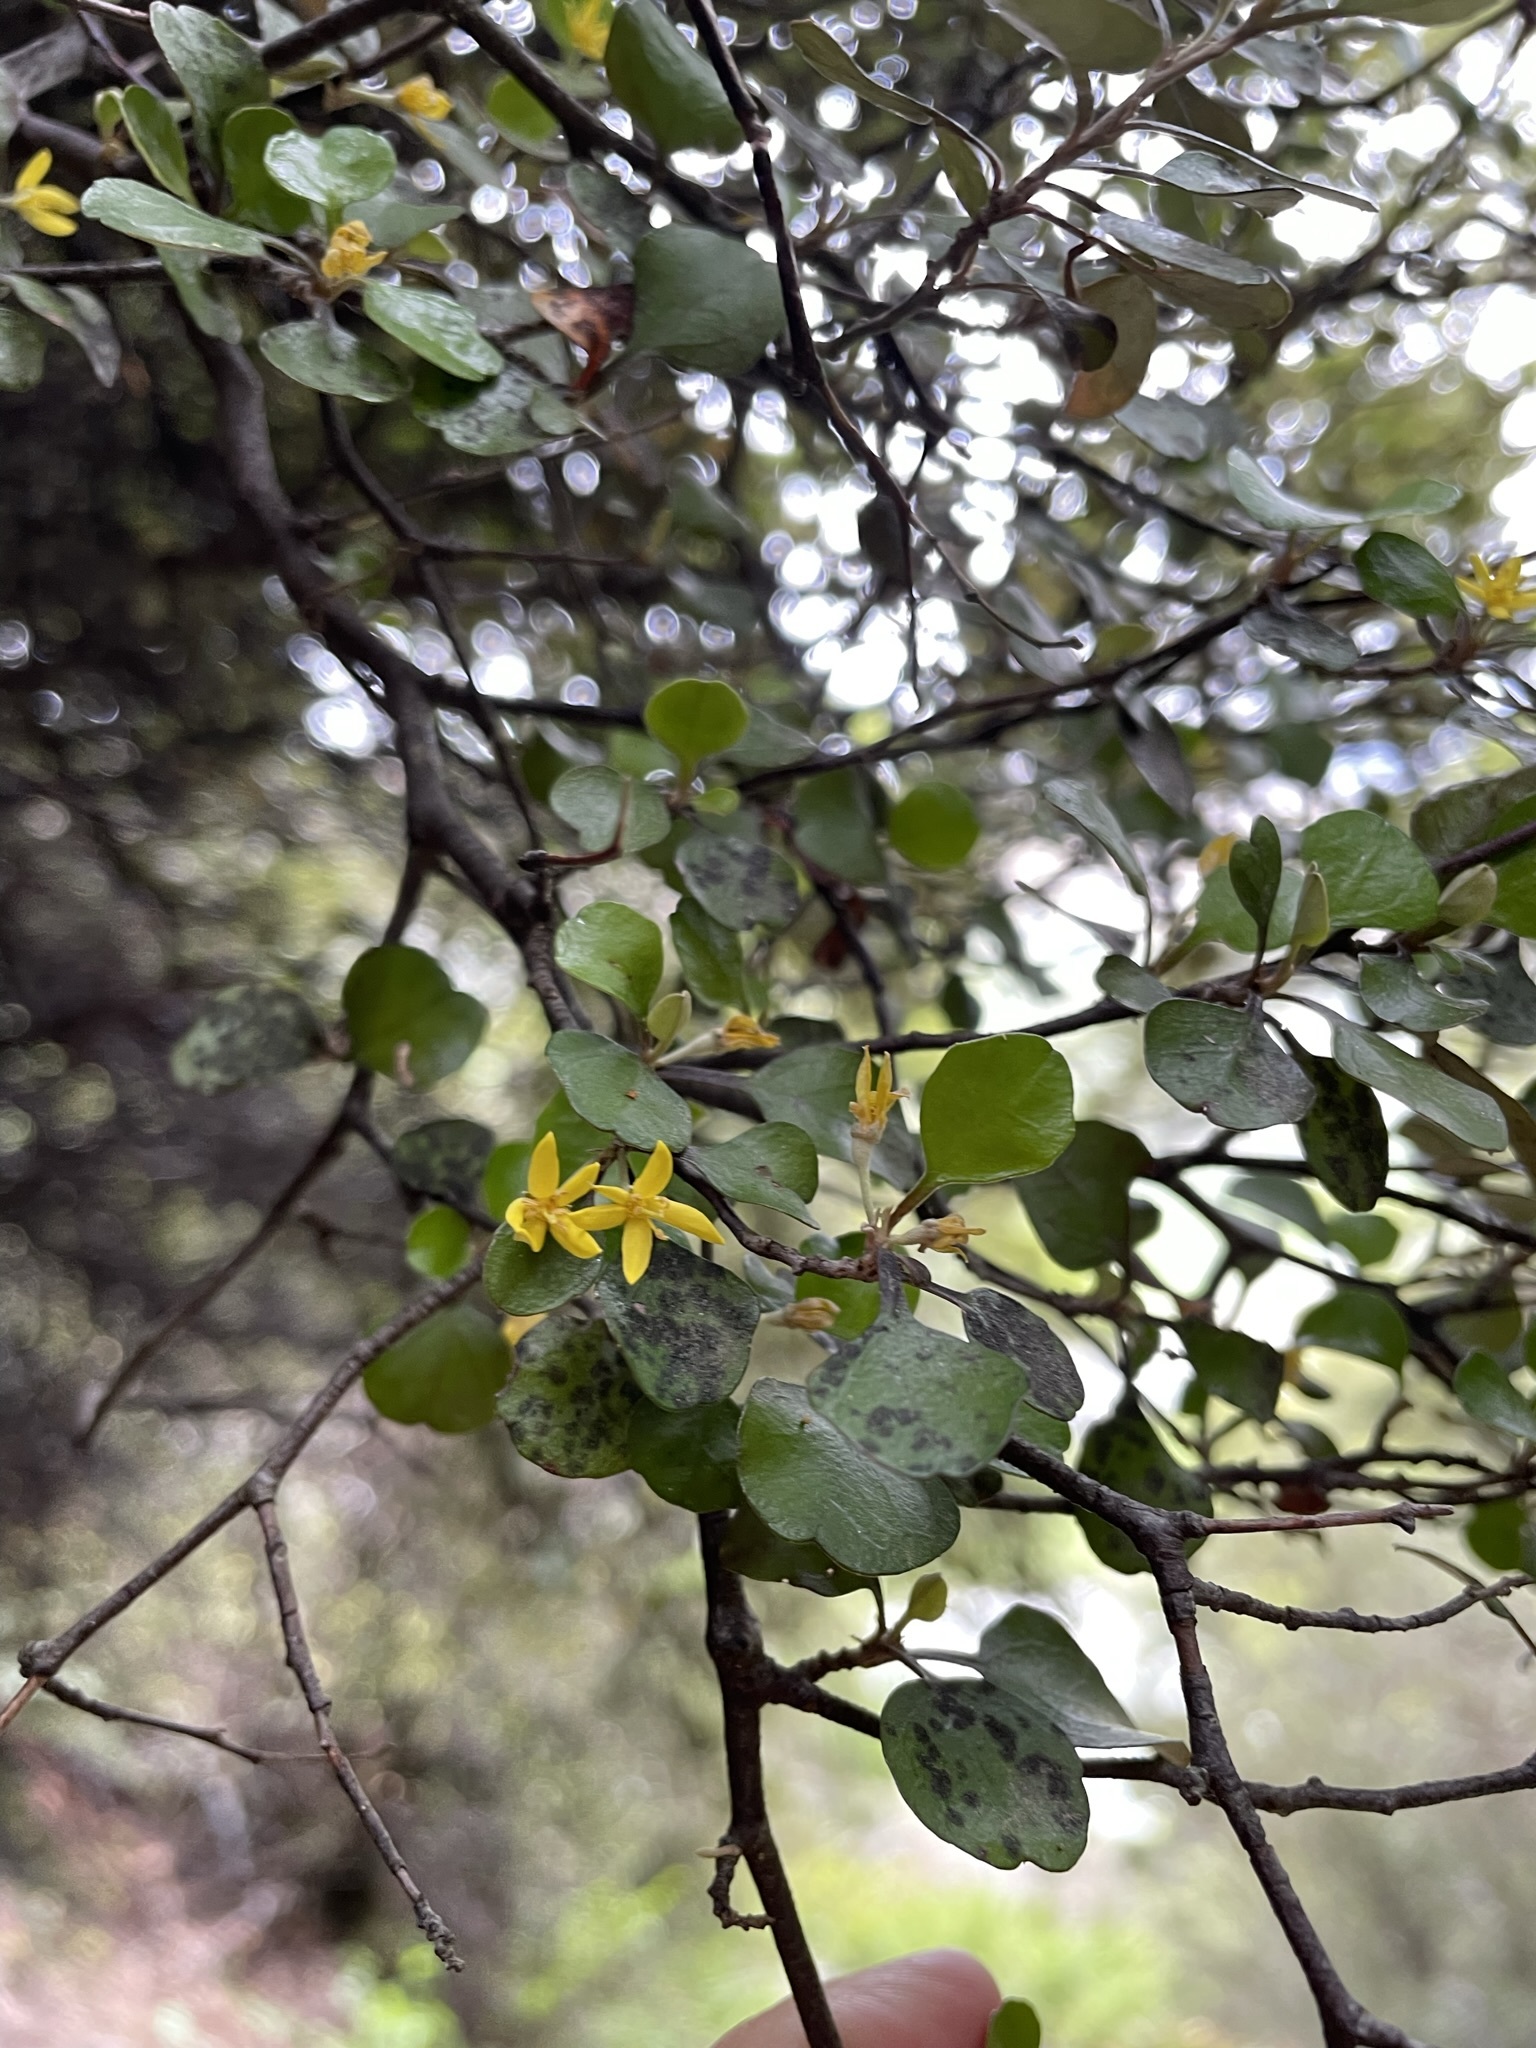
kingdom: Plantae
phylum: Tracheophyta
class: Magnoliopsida
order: Asterales
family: Argophyllaceae
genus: Corokia
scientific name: Corokia cotoneaster
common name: Wire nettingbush
